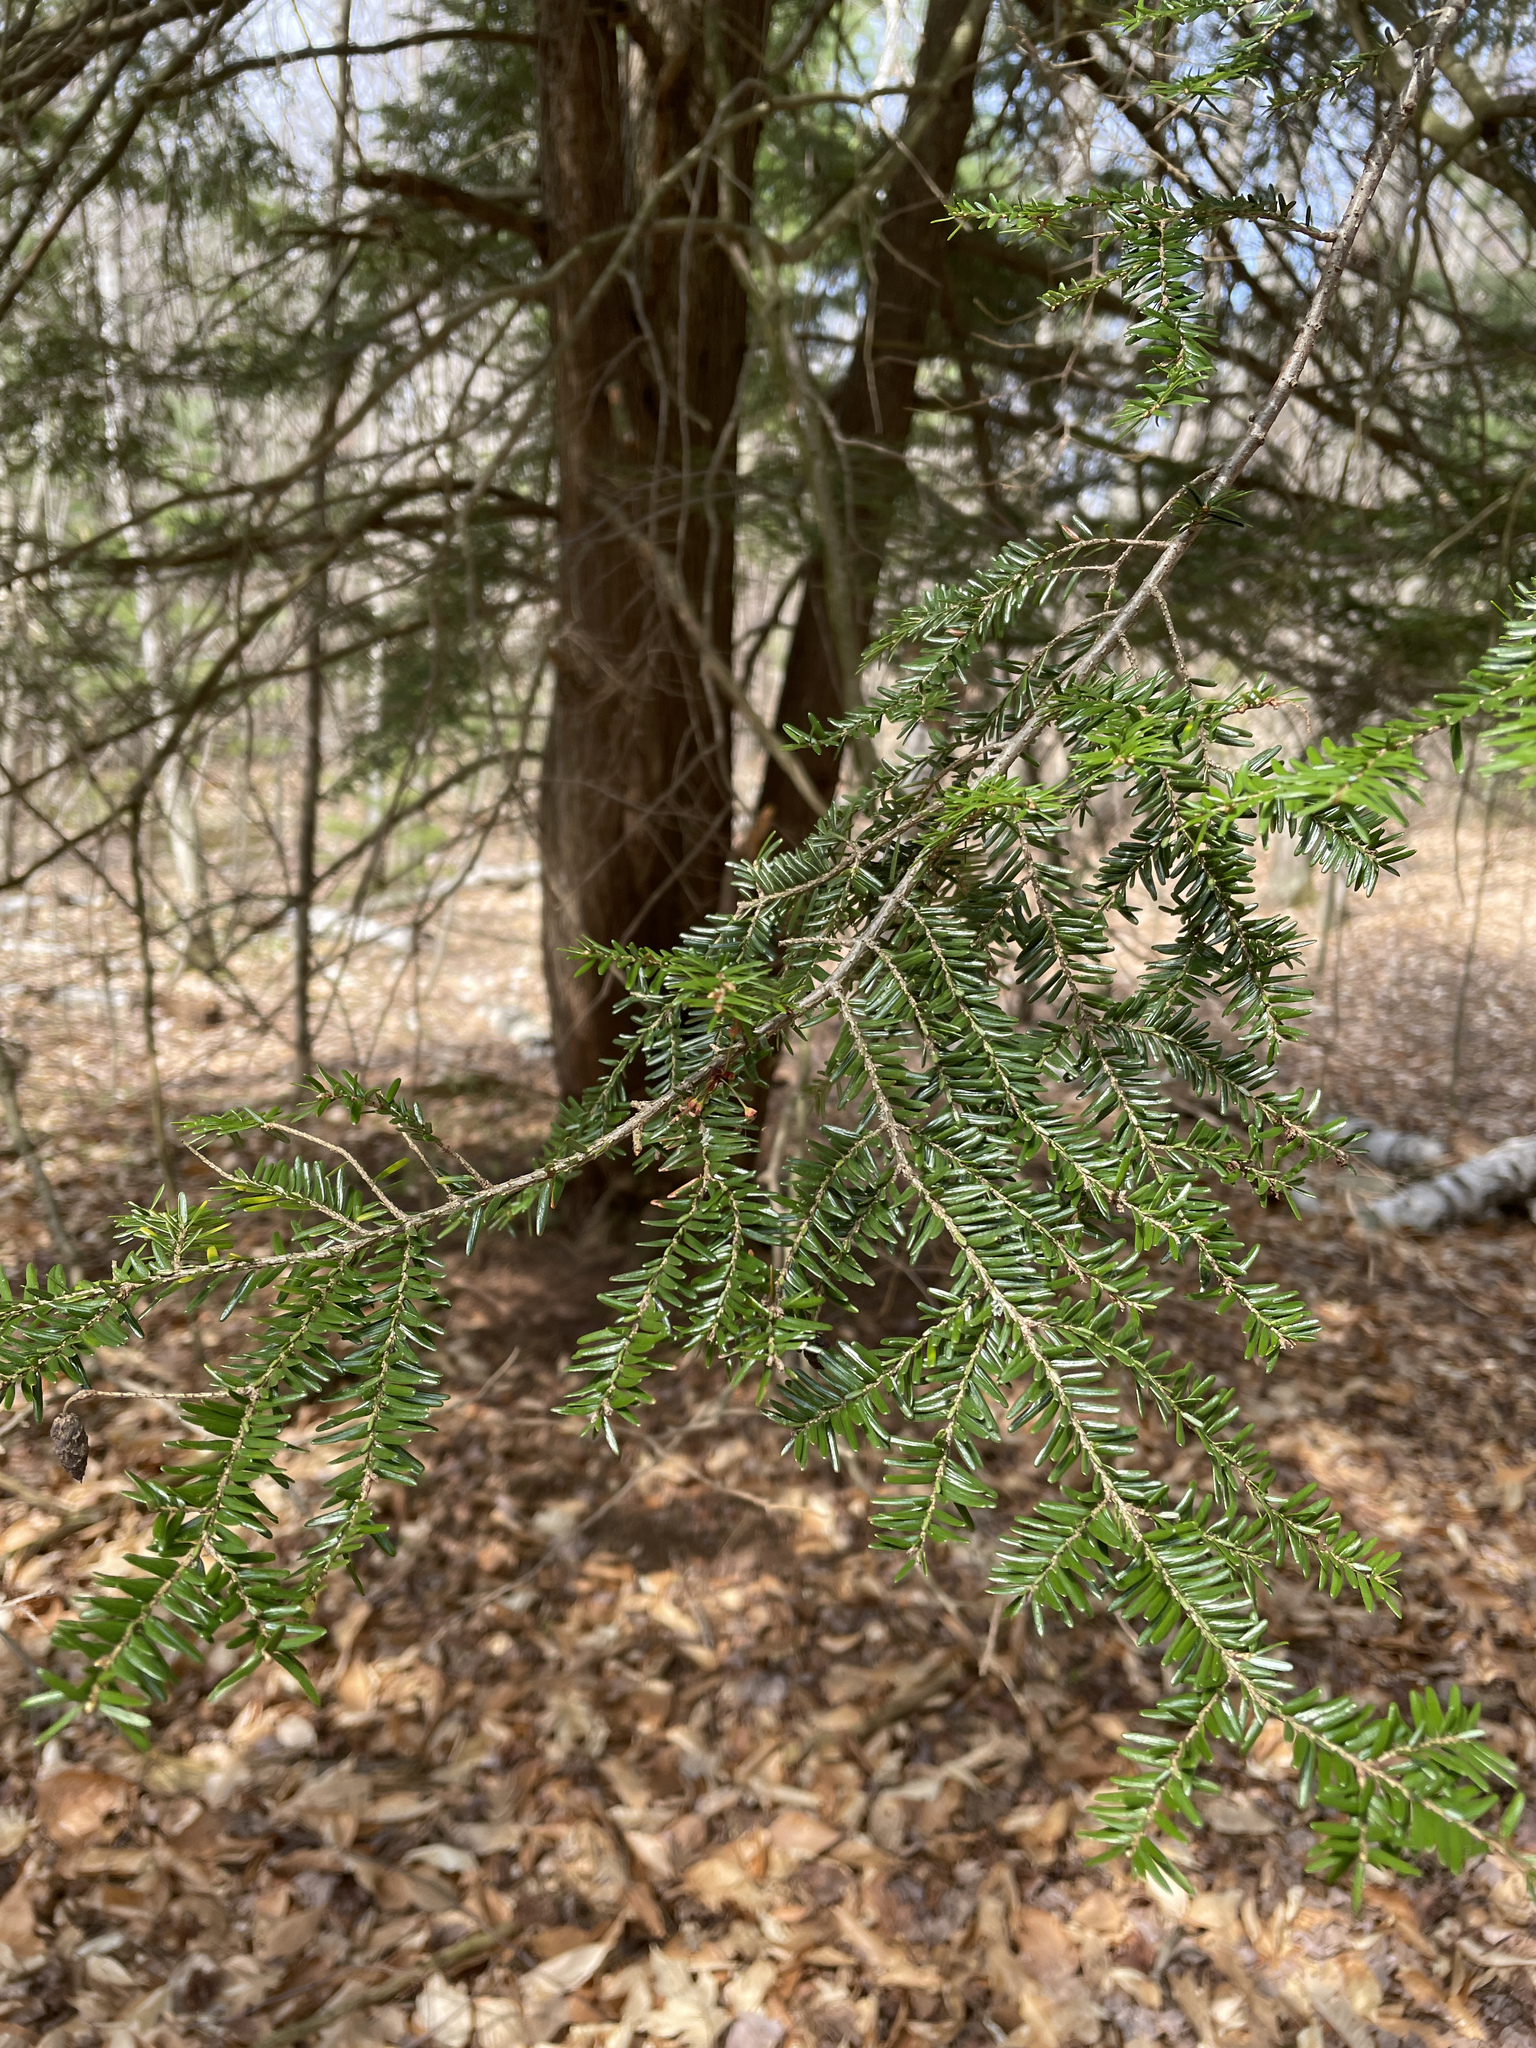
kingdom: Plantae
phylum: Tracheophyta
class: Pinopsida
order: Pinales
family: Pinaceae
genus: Tsuga
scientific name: Tsuga canadensis
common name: Eastern hemlock
